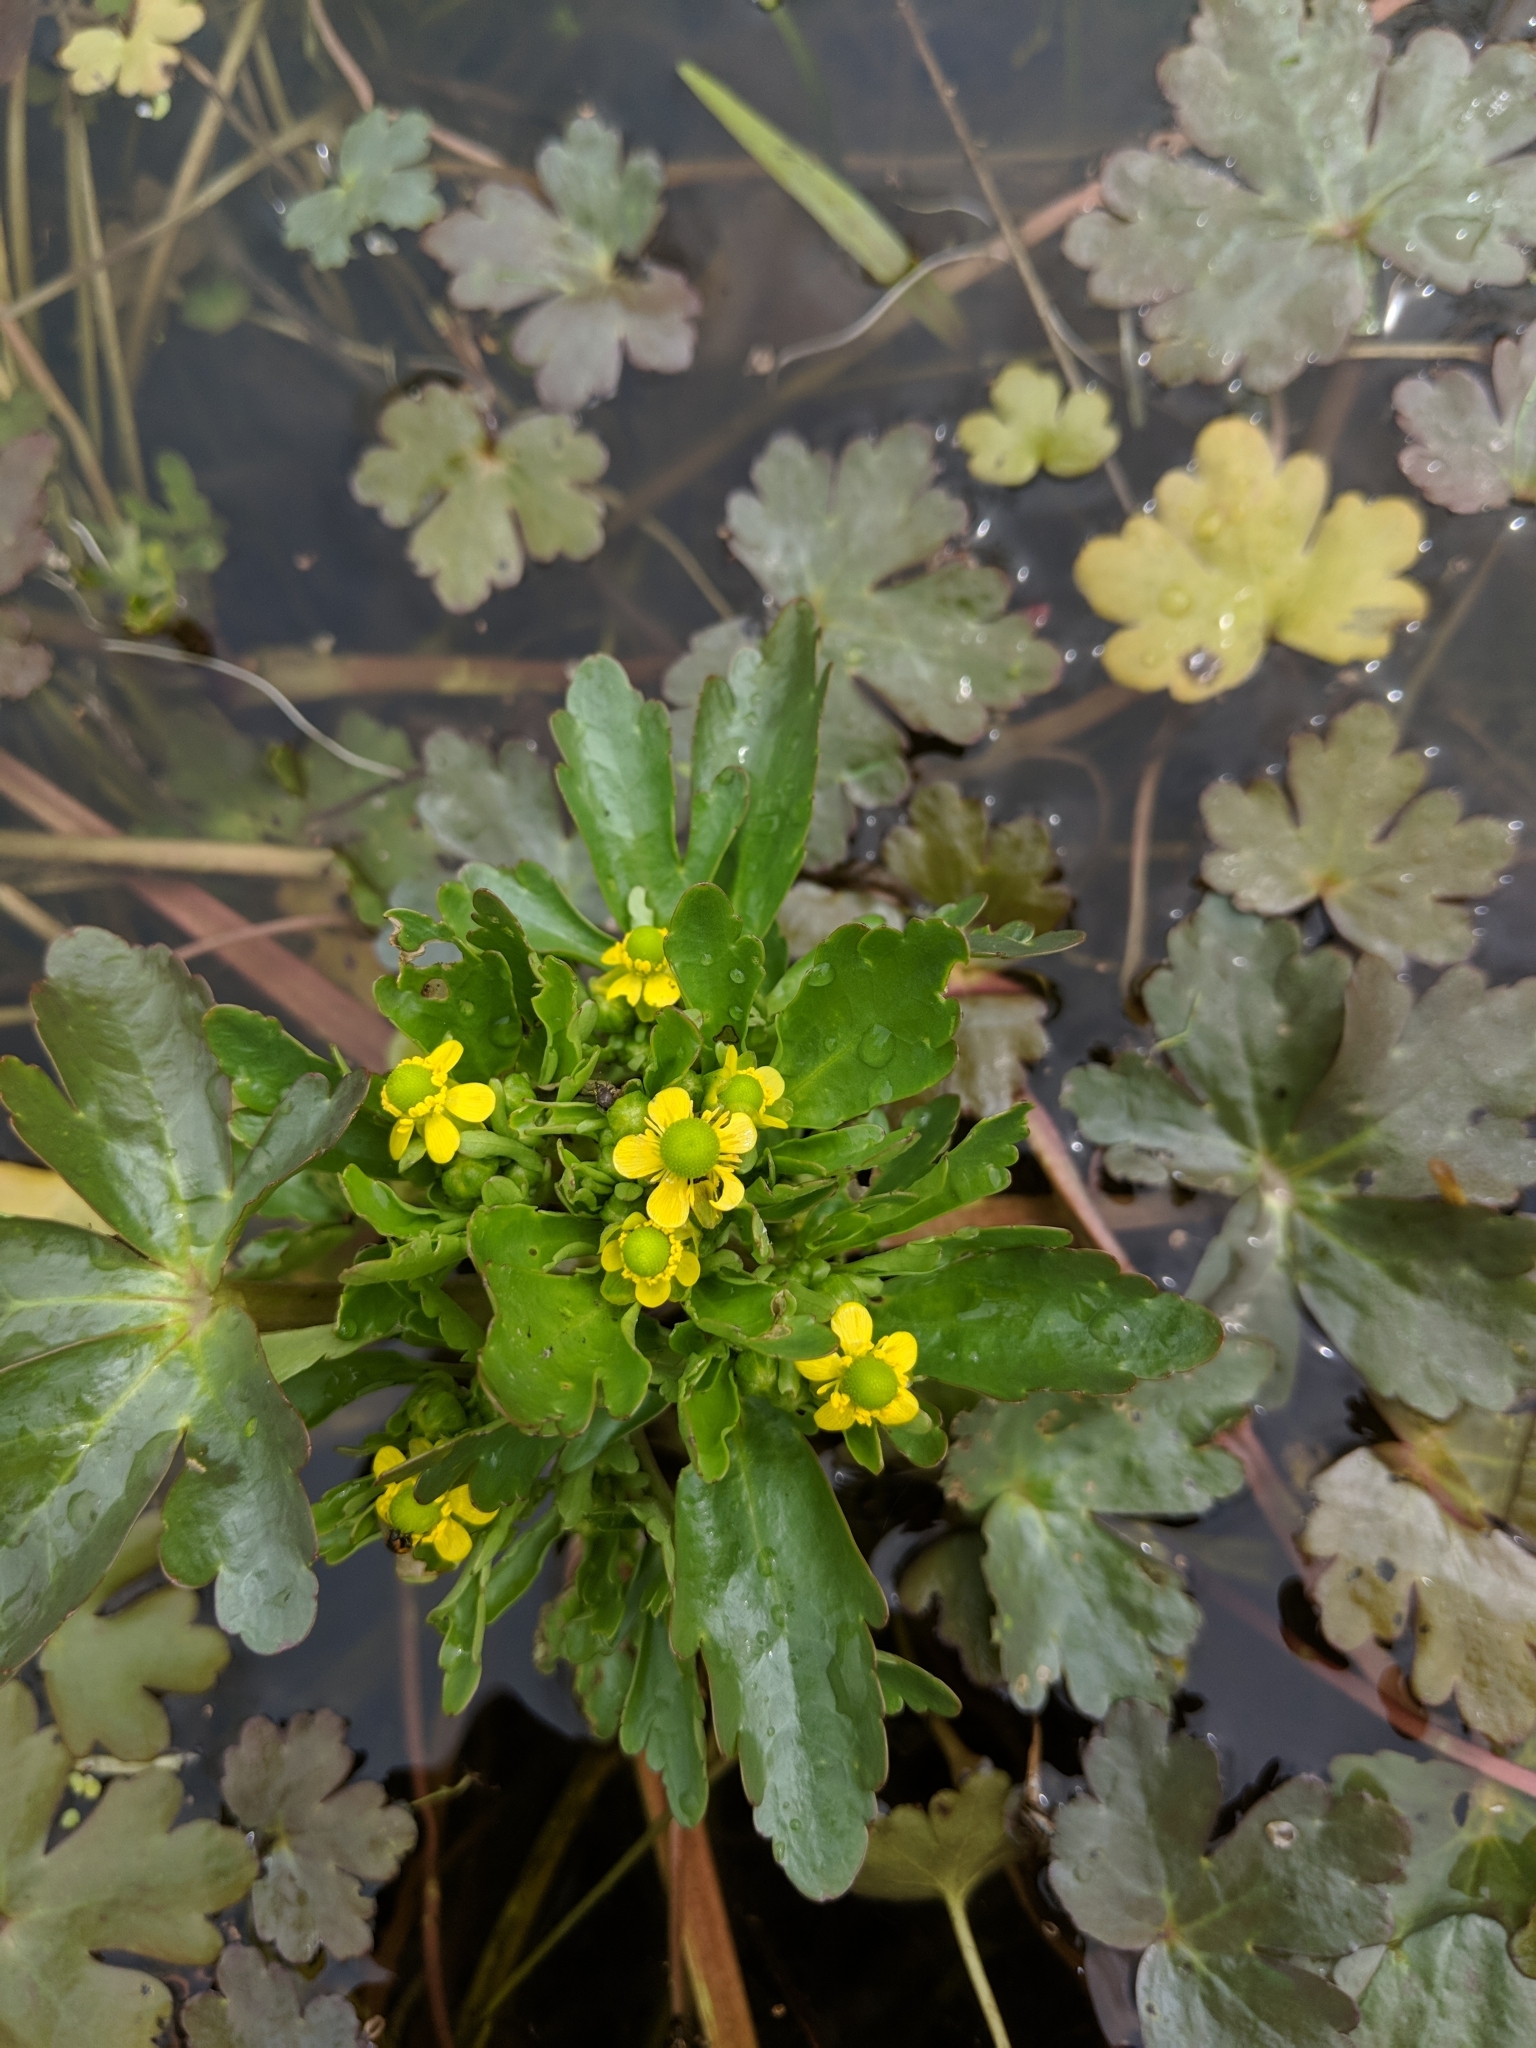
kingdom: Plantae
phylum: Tracheophyta
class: Magnoliopsida
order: Ranunculales
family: Ranunculaceae
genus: Ranunculus
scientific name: Ranunculus sceleratus
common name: Celery-leaved buttercup
